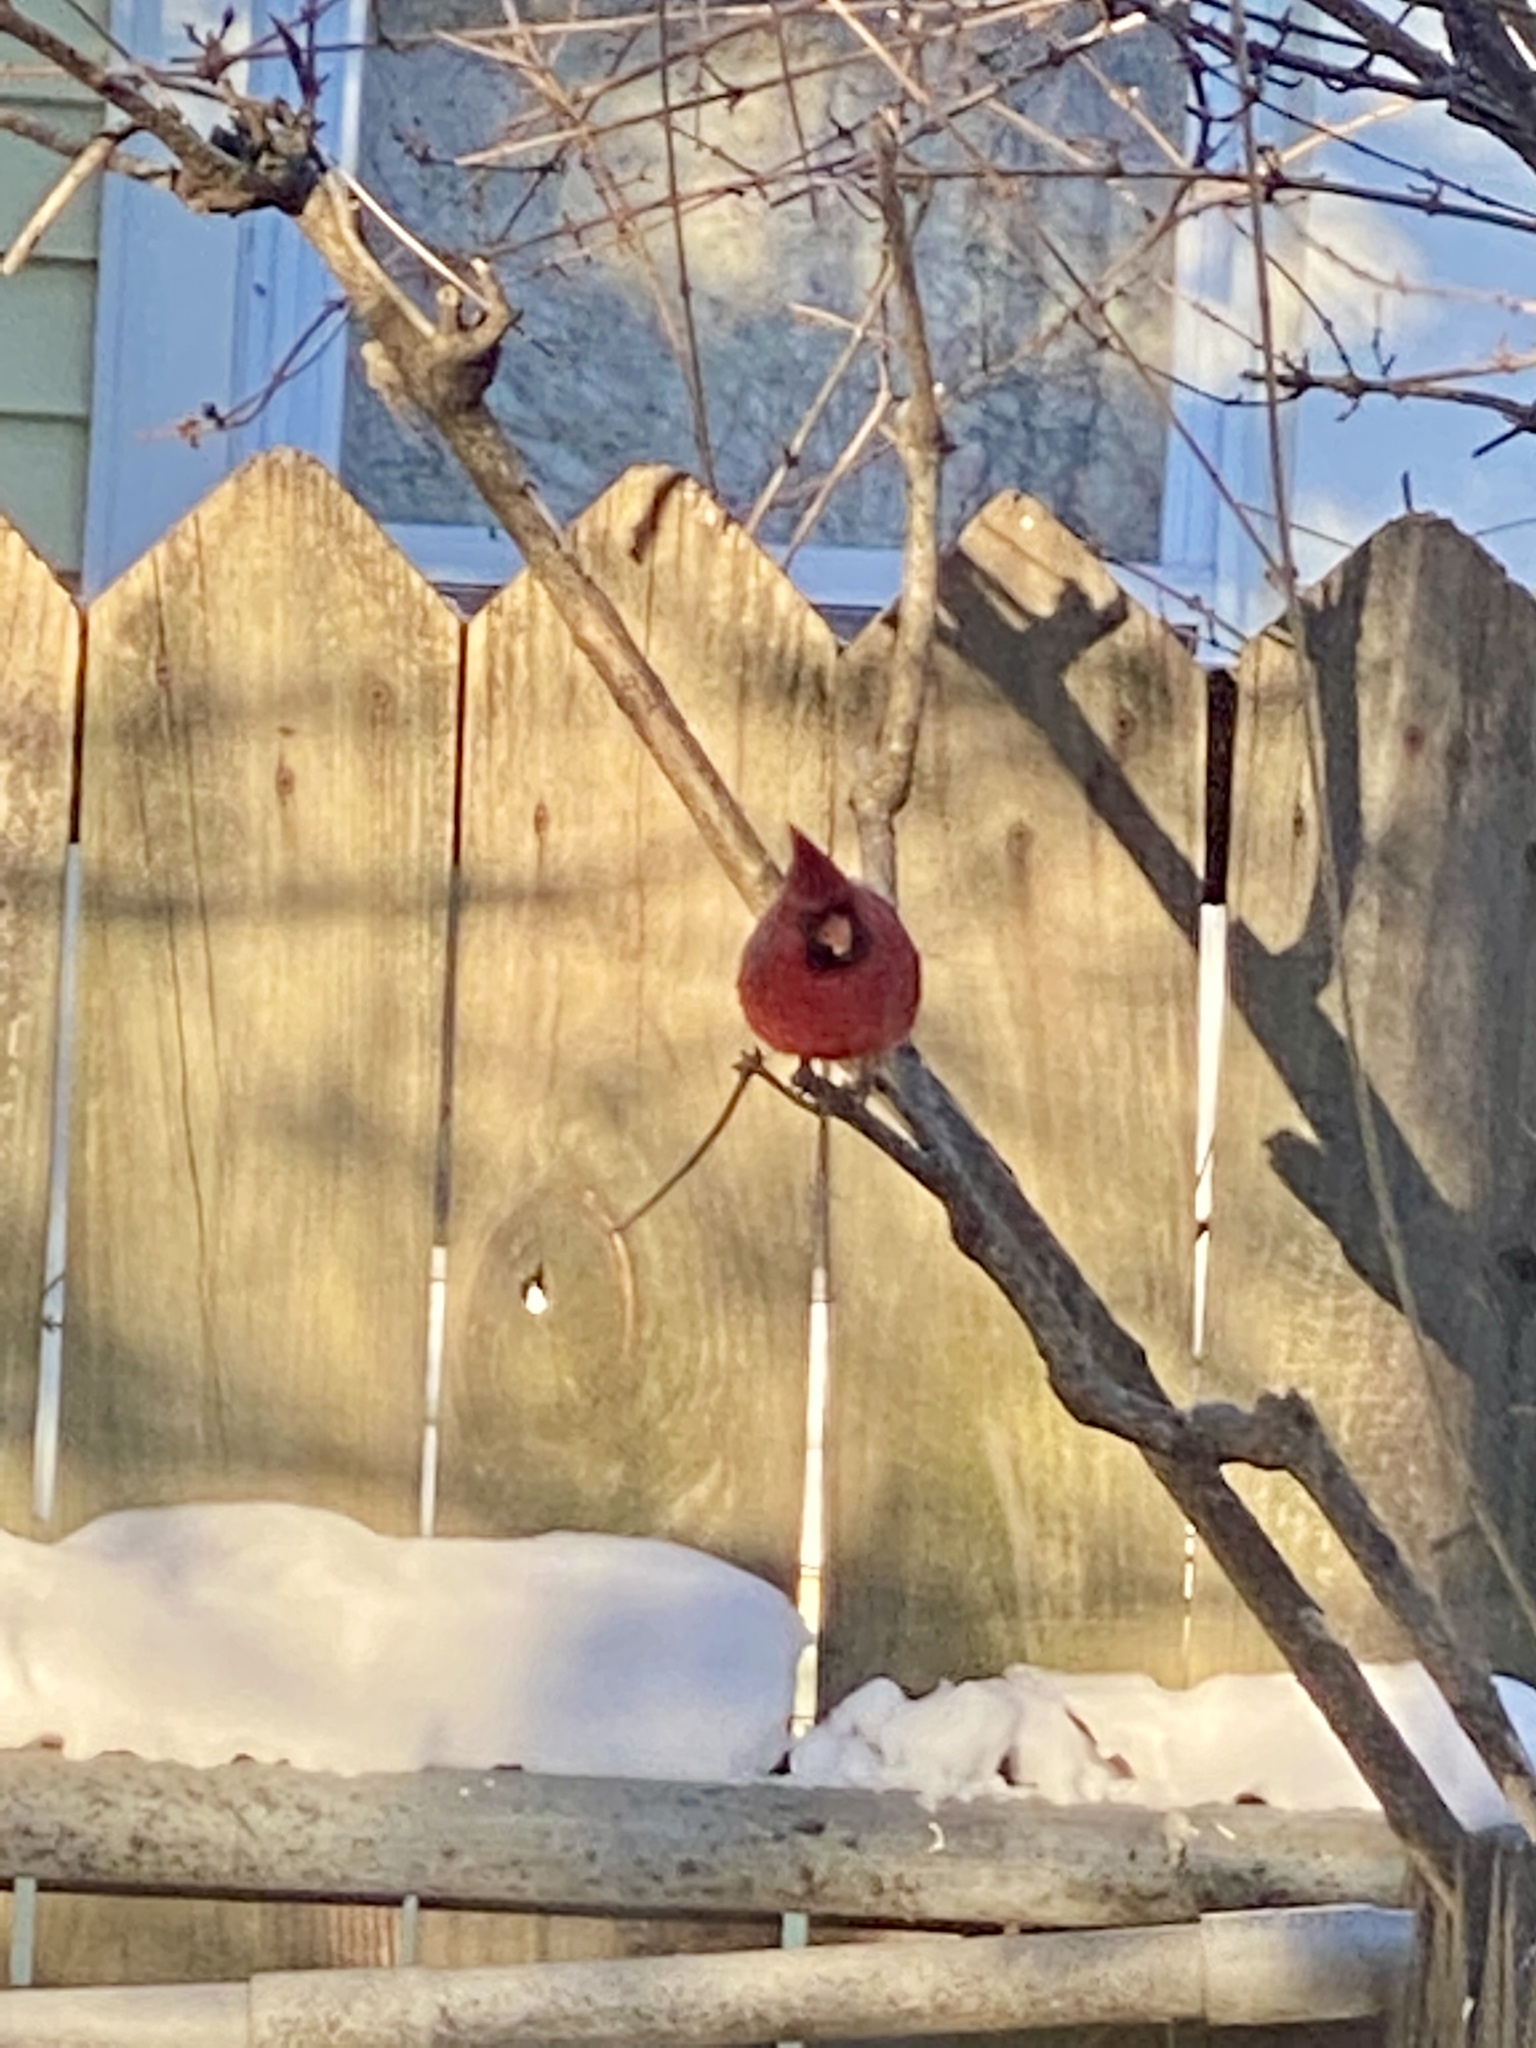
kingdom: Animalia
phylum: Chordata
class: Aves
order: Passeriformes
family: Cardinalidae
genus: Cardinalis
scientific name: Cardinalis cardinalis
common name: Northern cardinal
